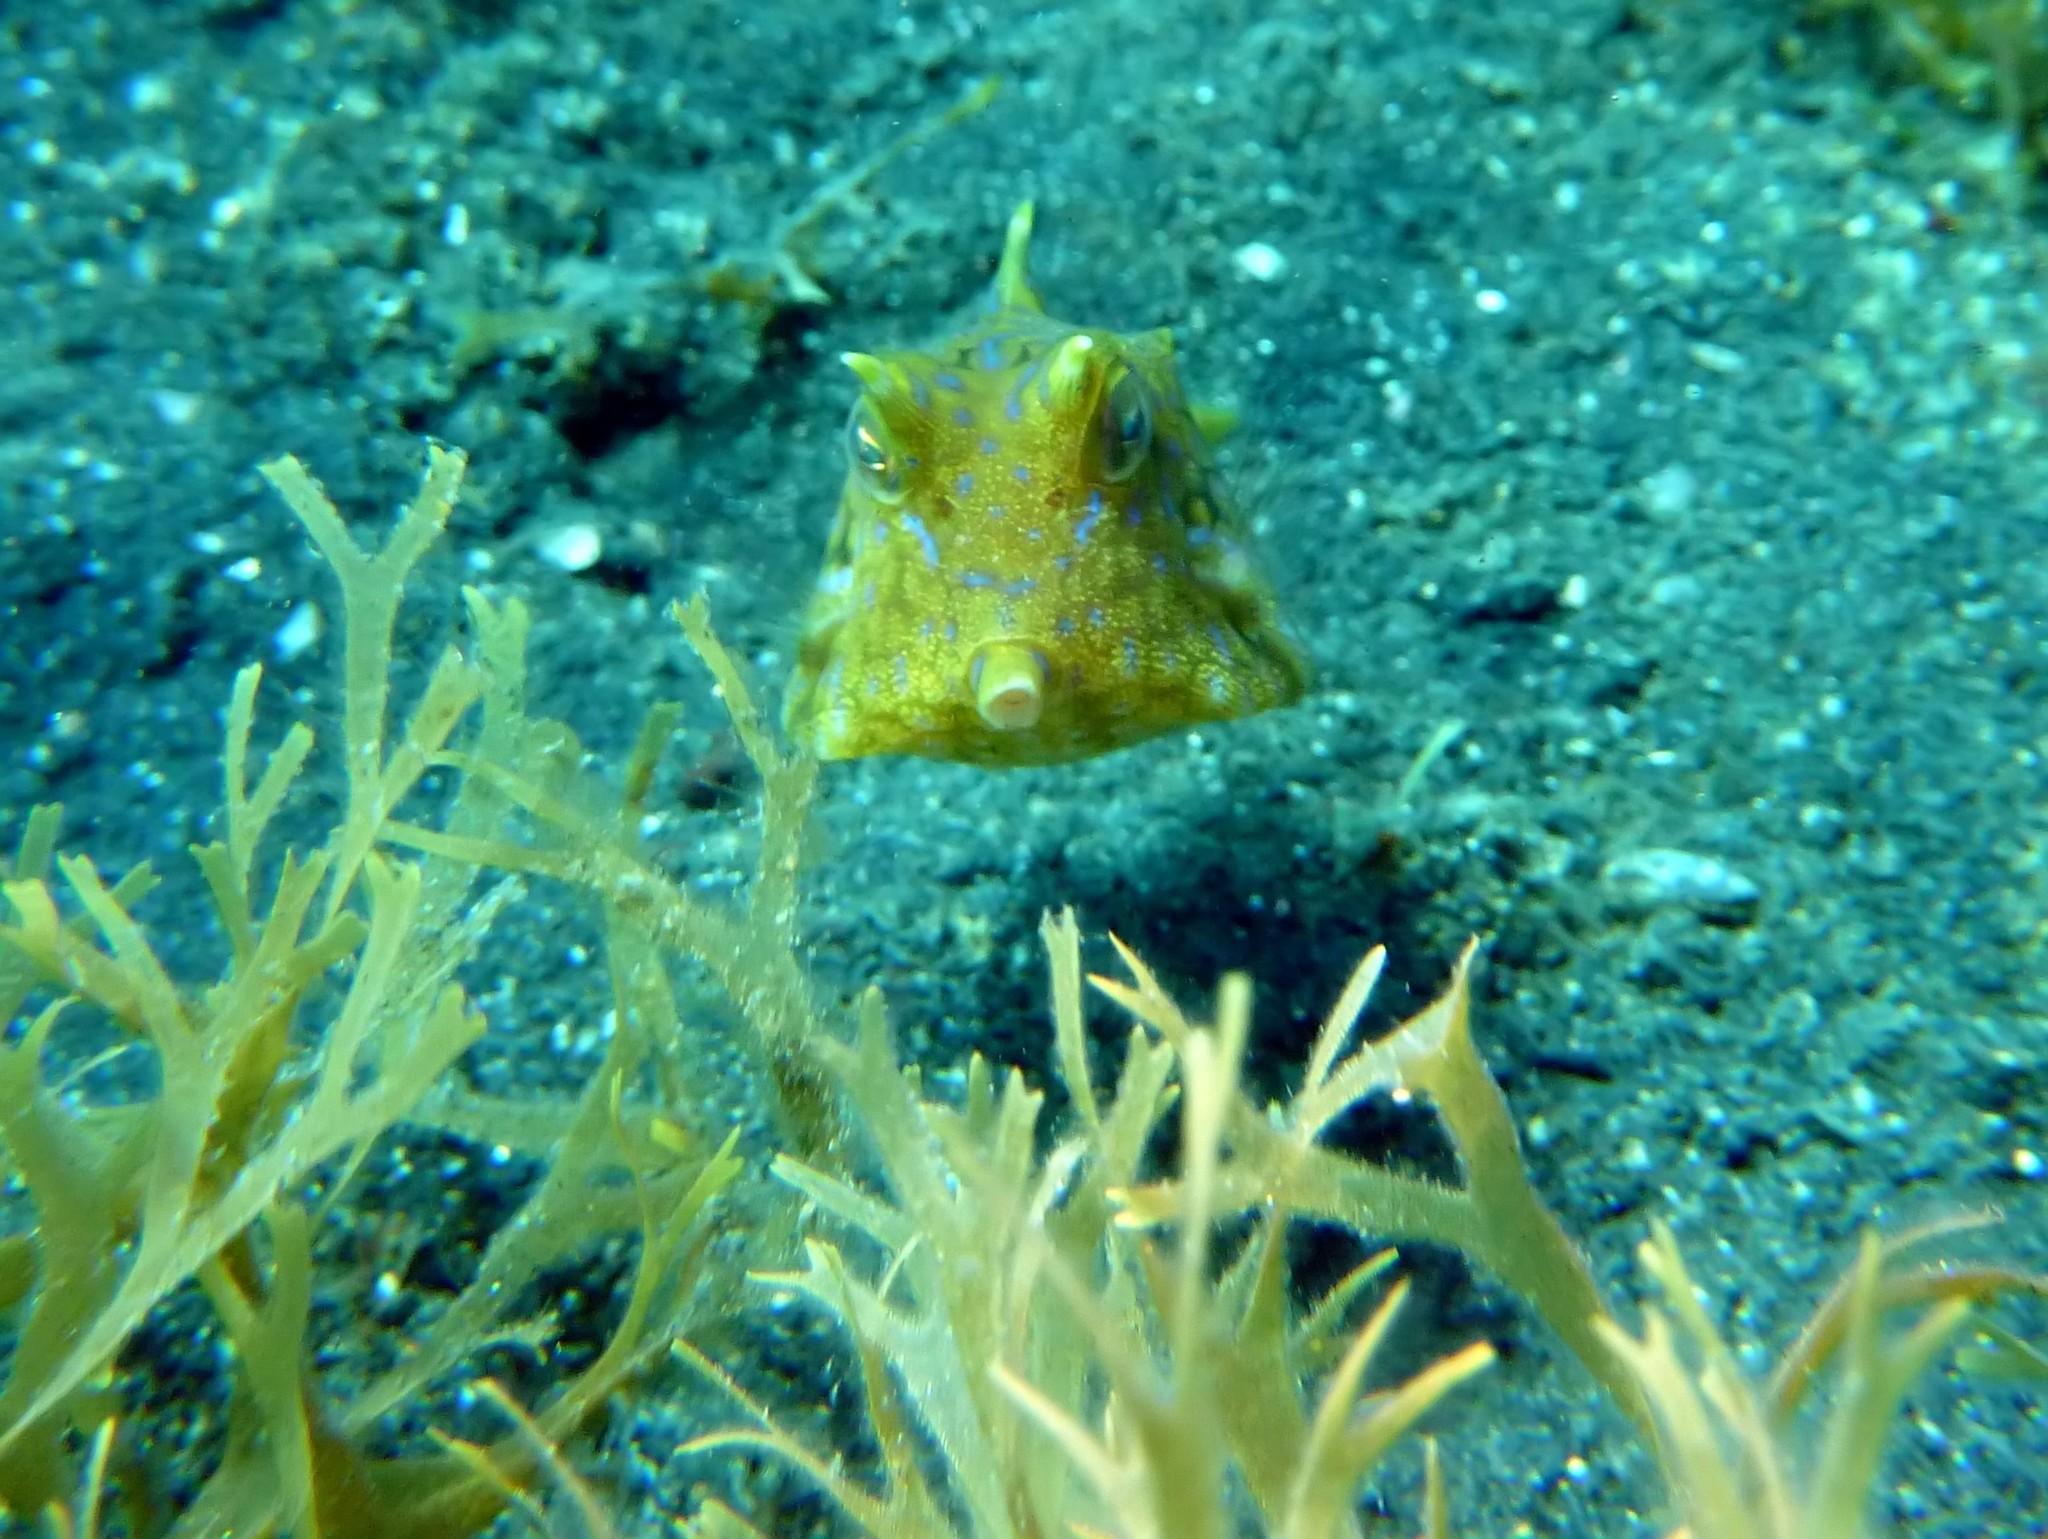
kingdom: Animalia
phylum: Chordata
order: Tetraodontiformes
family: Ostraciidae
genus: Lactoria
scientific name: Lactoria fornasini
